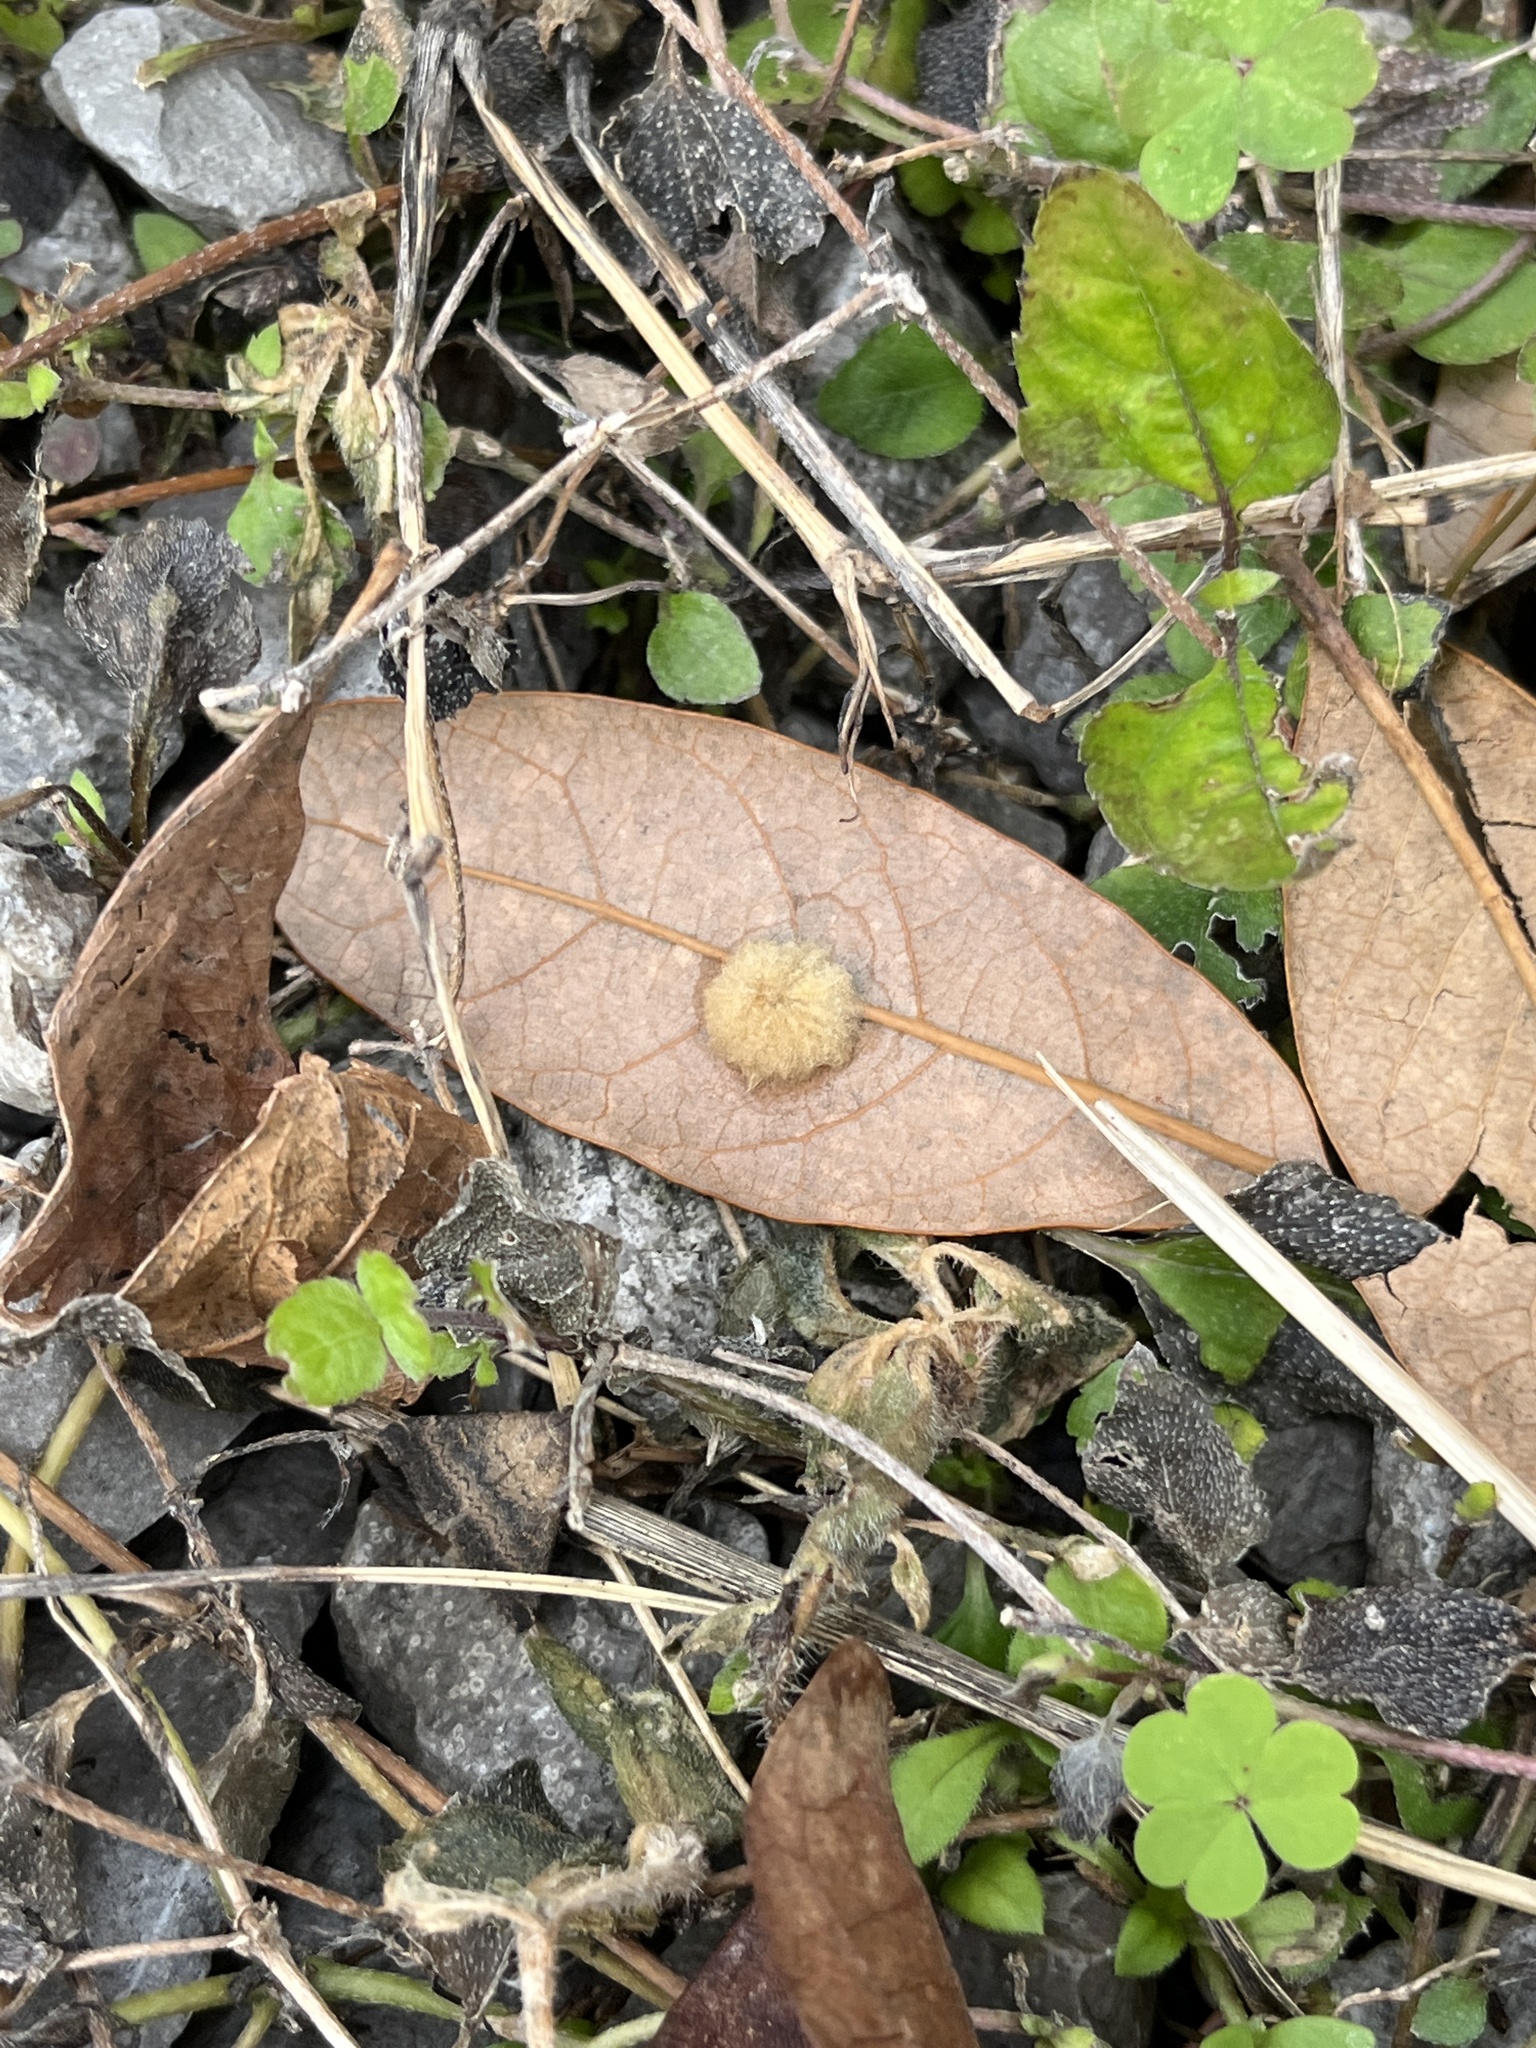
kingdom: Animalia
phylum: Arthropoda
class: Insecta
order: Hymenoptera
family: Cynipidae
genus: Andricus
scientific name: Andricus Druon quercuslanigerum
